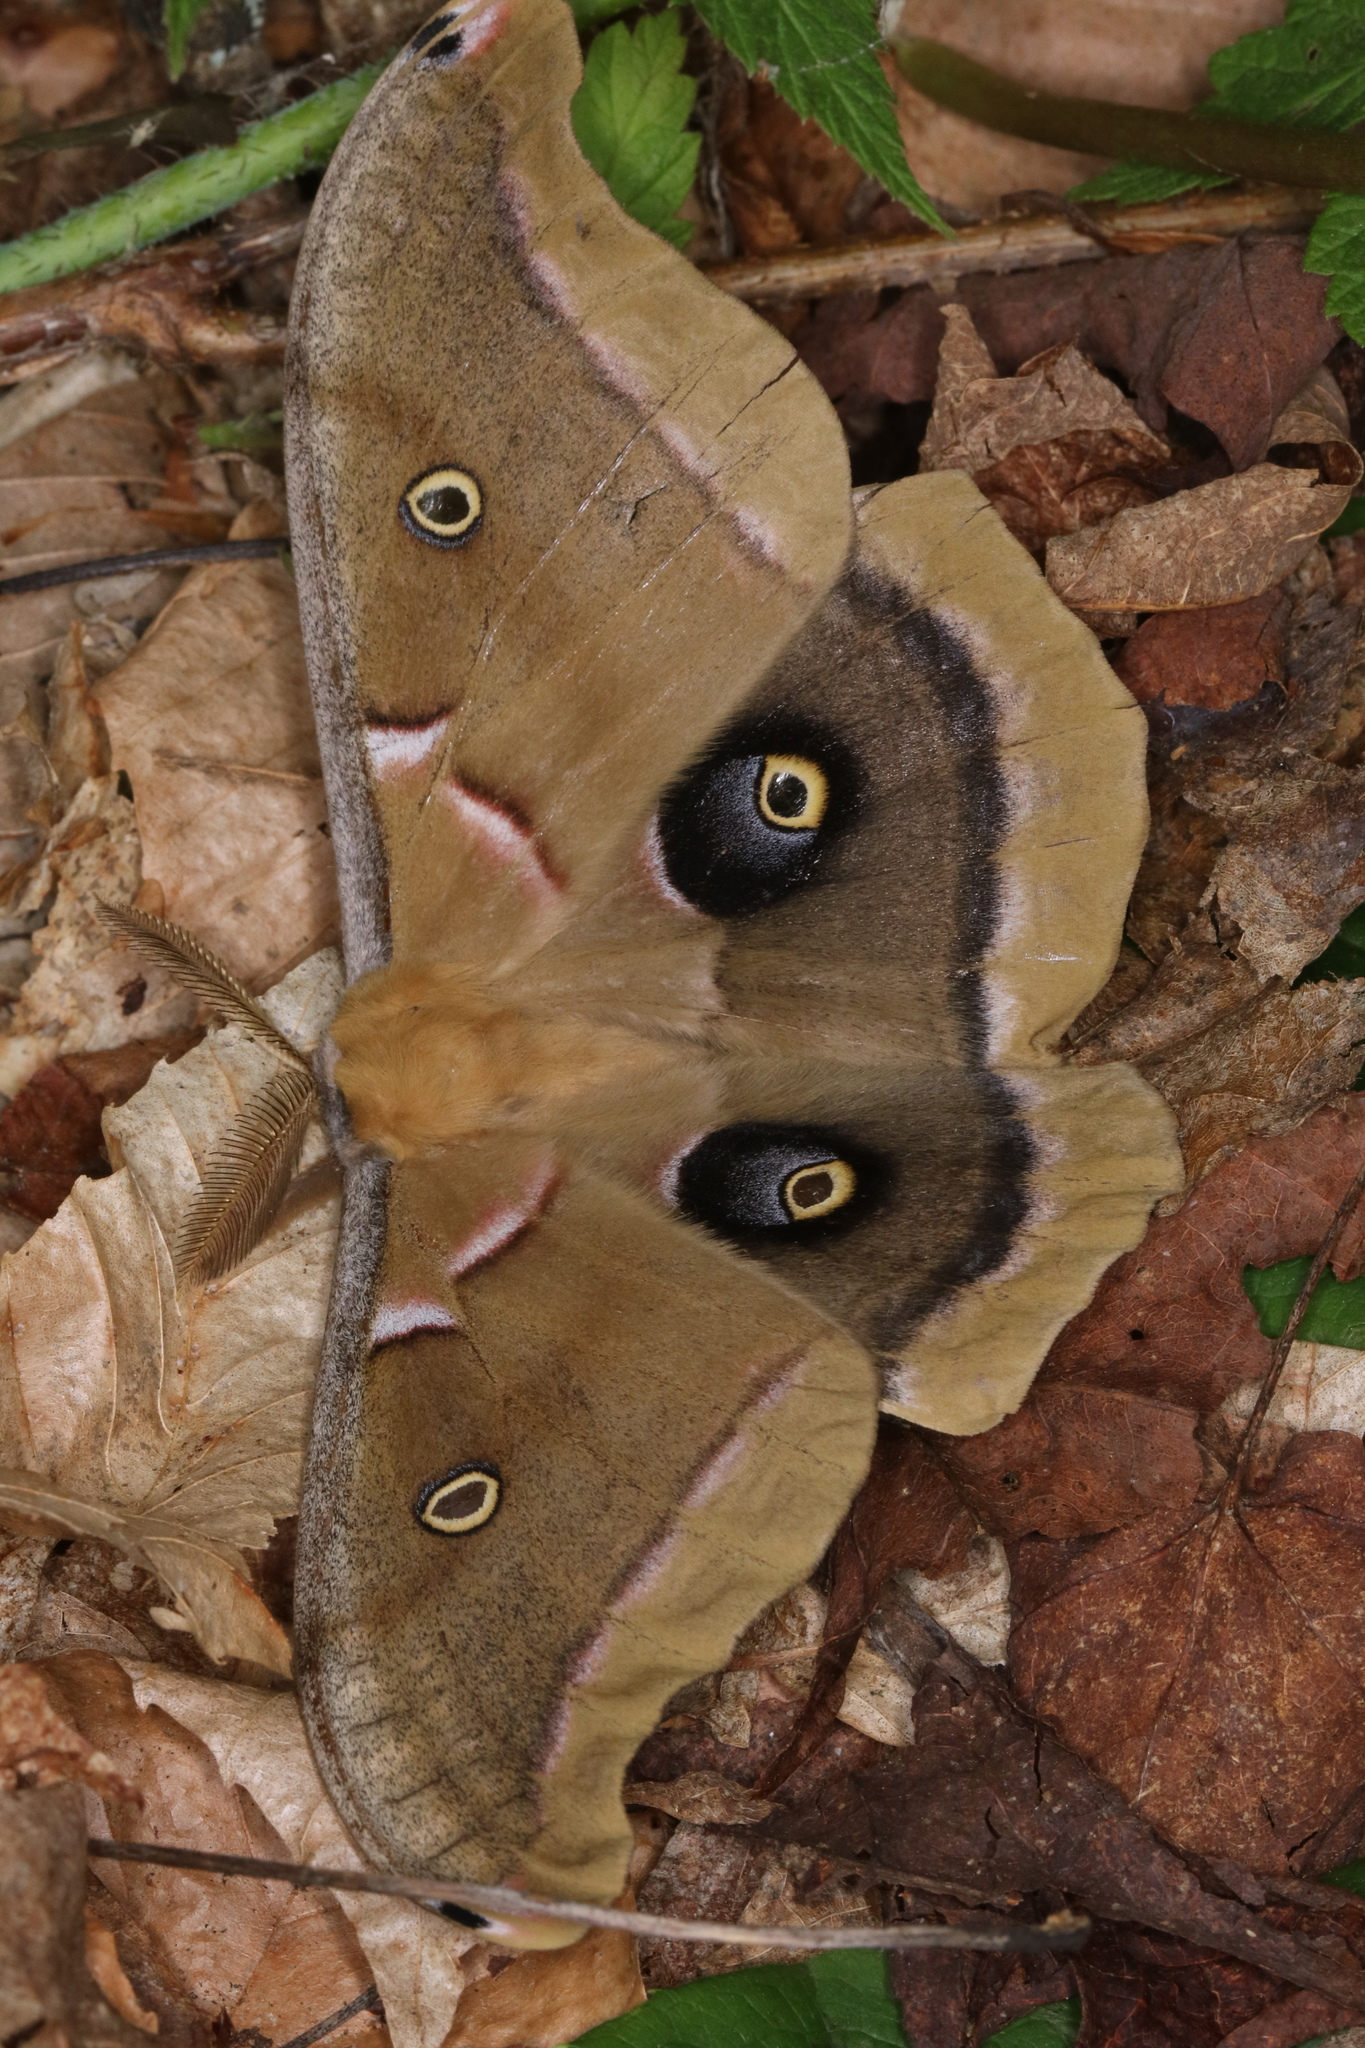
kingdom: Animalia
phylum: Arthropoda
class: Insecta
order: Lepidoptera
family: Saturniidae
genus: Antheraea
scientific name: Antheraea polyphemus
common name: Polyphemus moth
